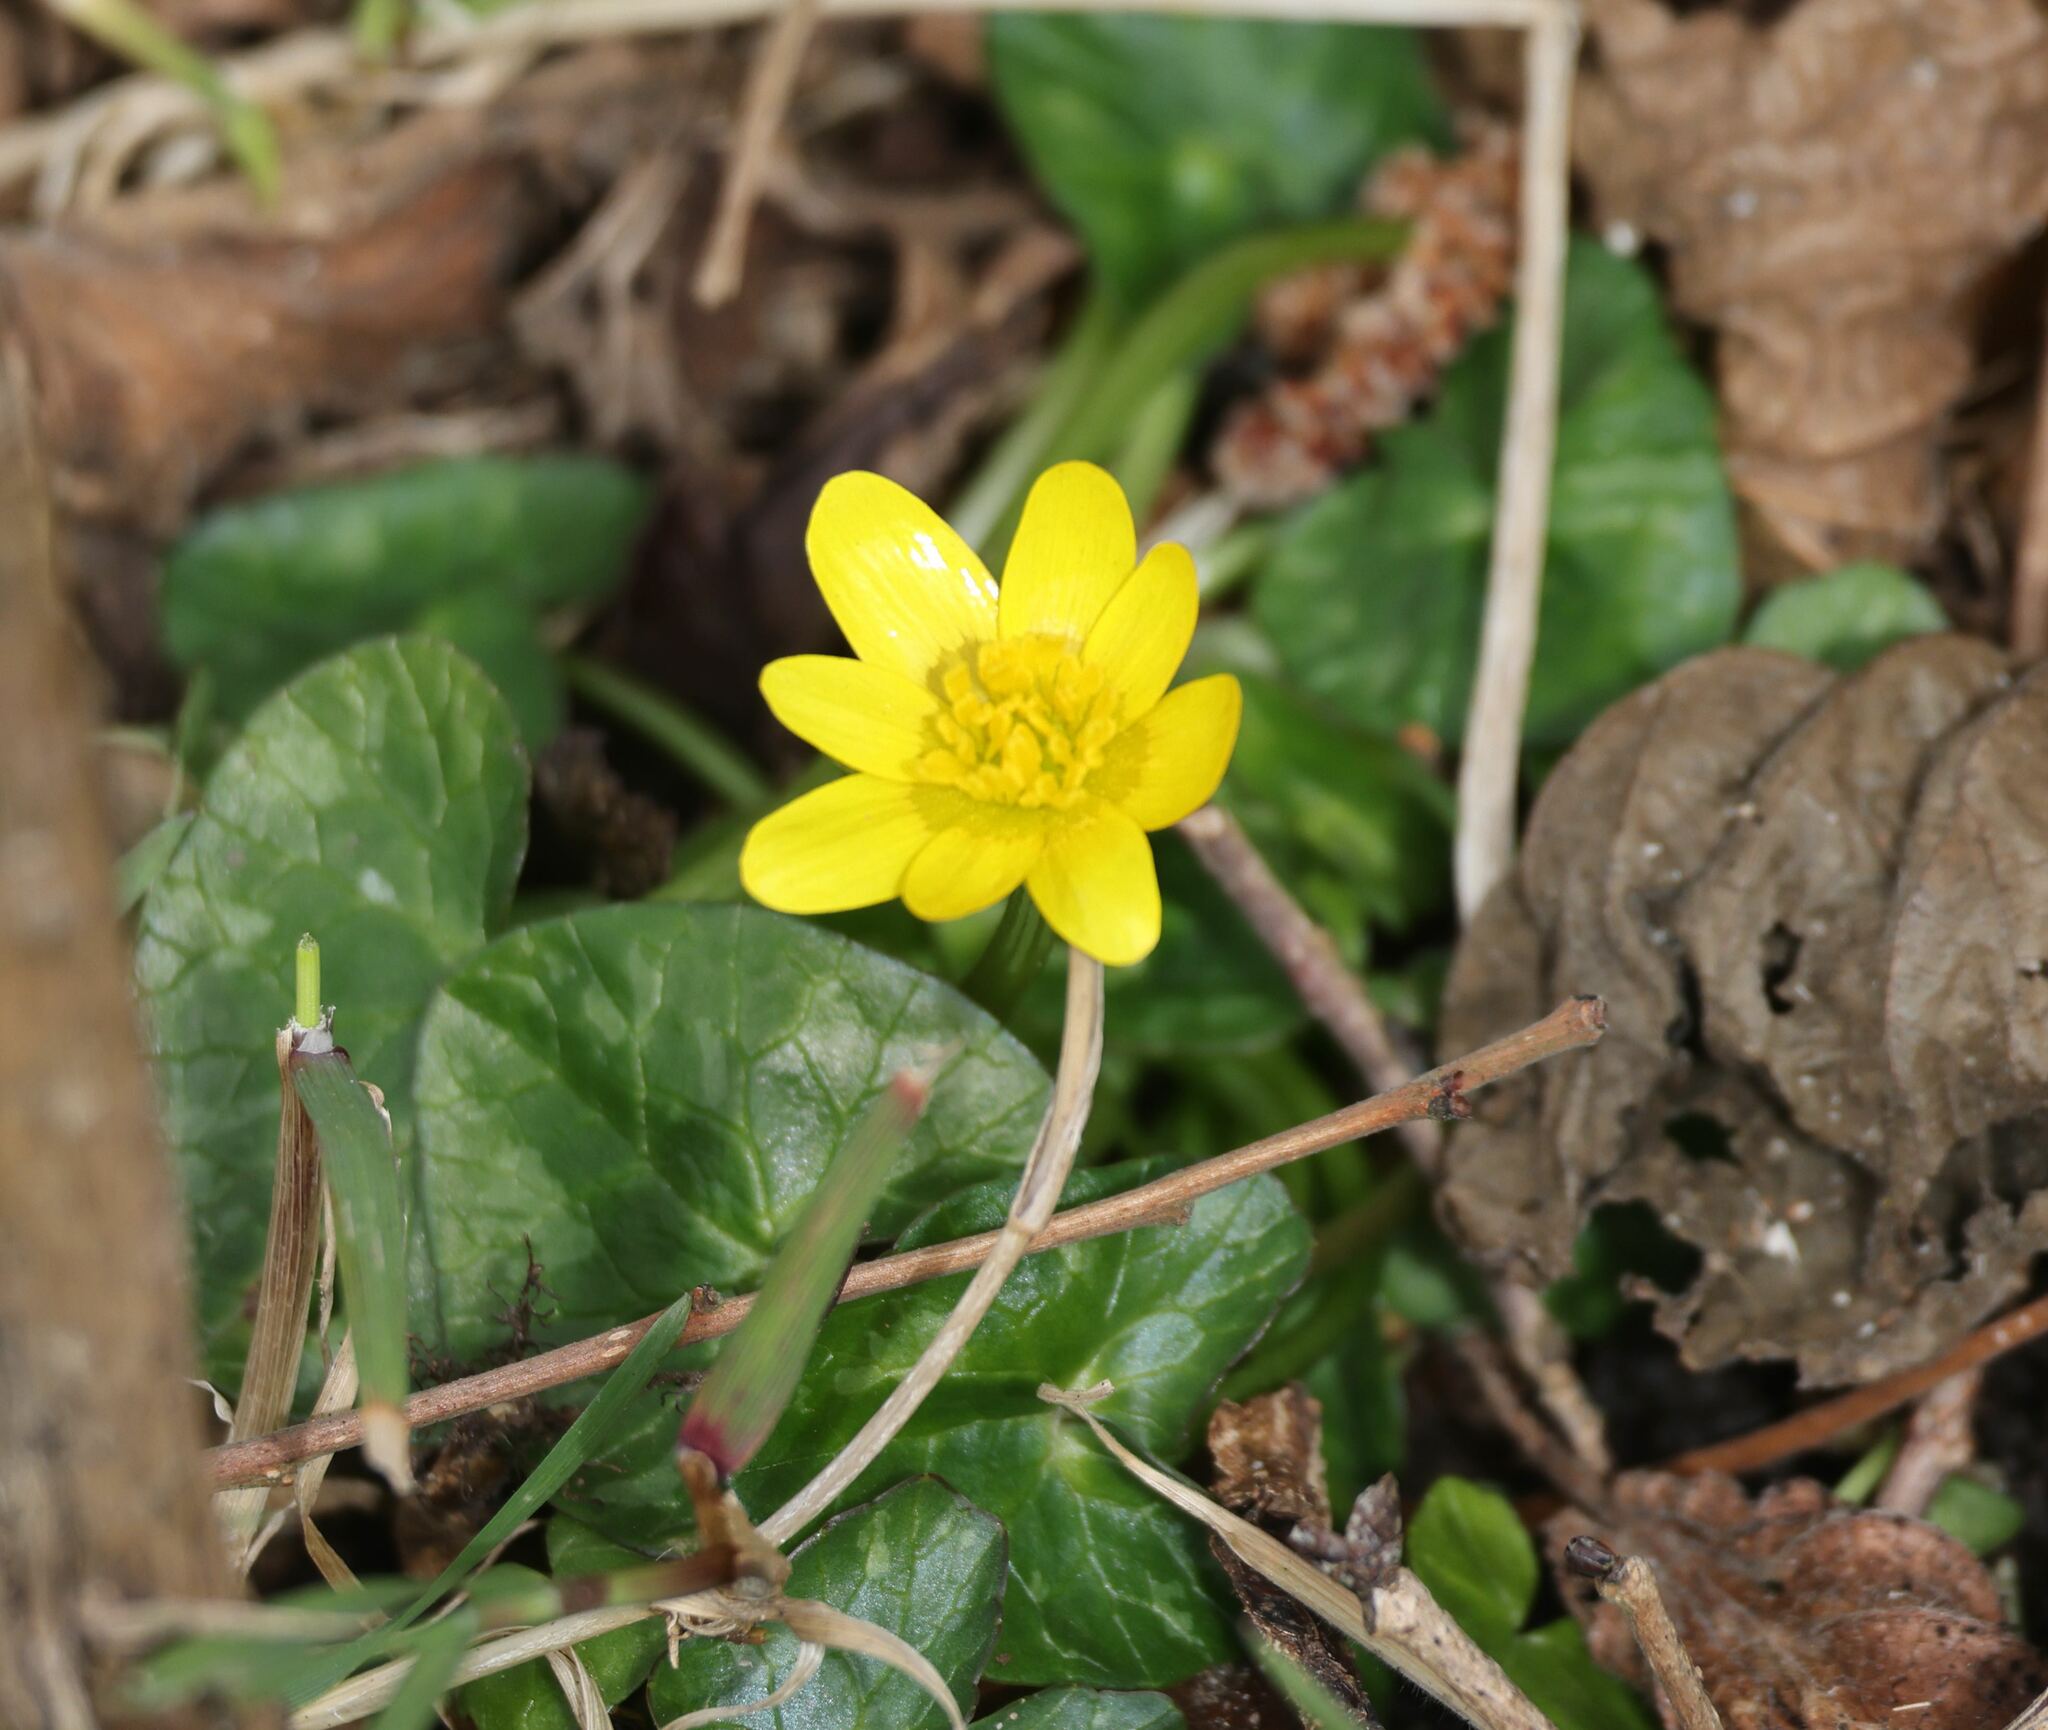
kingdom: Plantae
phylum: Tracheophyta
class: Magnoliopsida
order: Ranunculales
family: Ranunculaceae
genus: Ficaria
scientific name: Ficaria verna
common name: Lesser celandine
